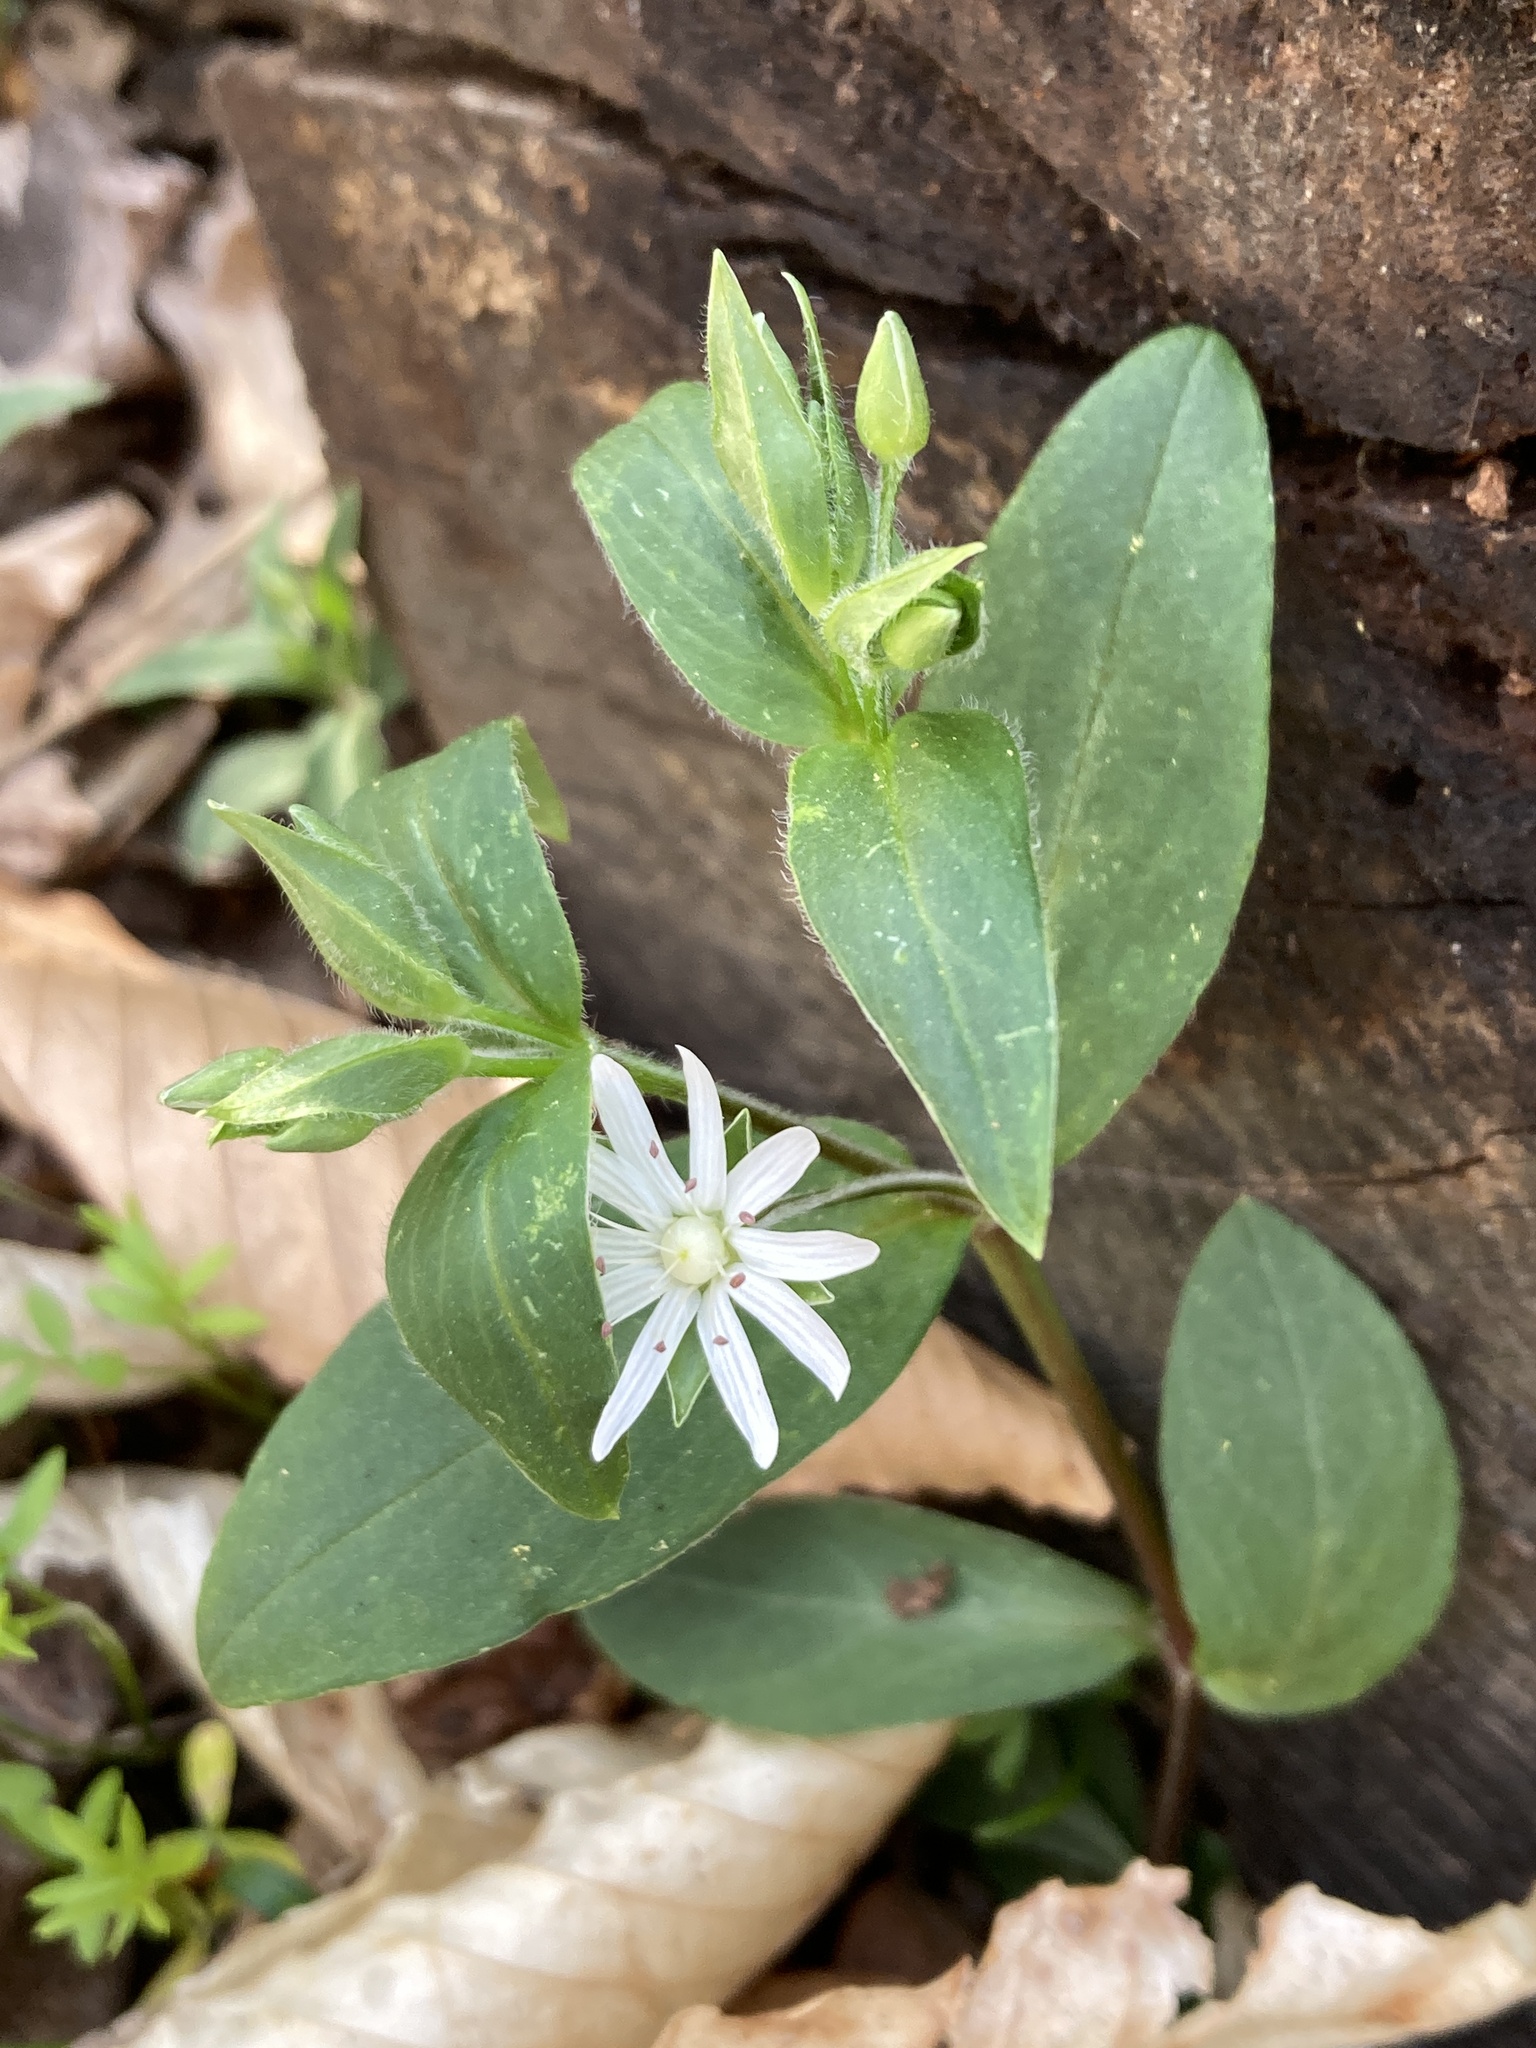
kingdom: Plantae
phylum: Tracheophyta
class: Magnoliopsida
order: Caryophyllales
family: Caryophyllaceae
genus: Stellaria
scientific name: Stellaria pubera
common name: Star chickweed
